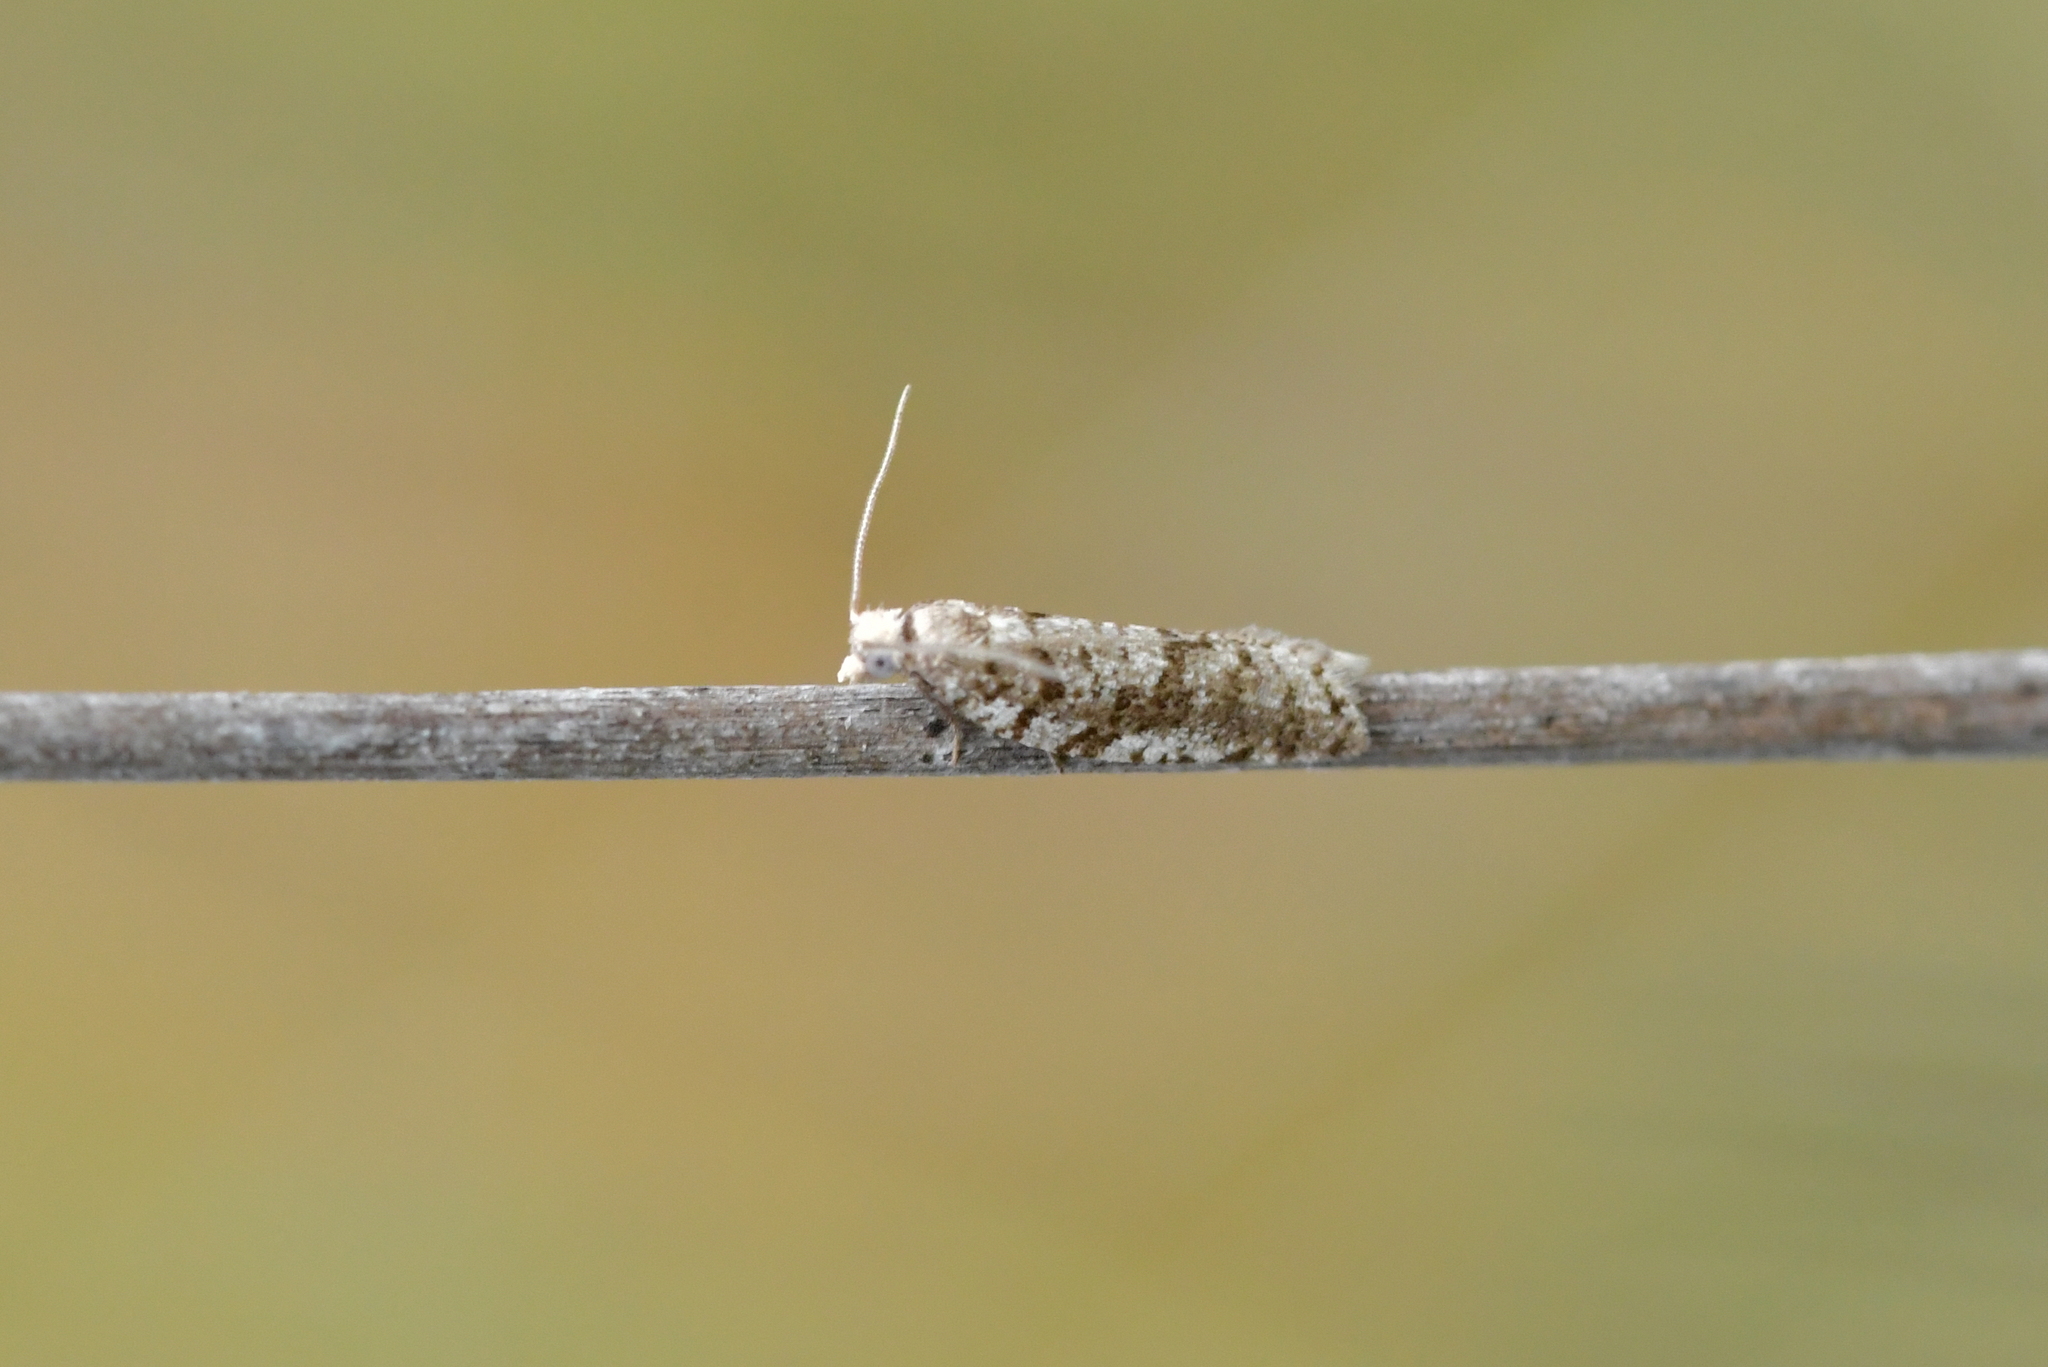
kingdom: Animalia
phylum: Arthropoda
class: Insecta
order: Lepidoptera
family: Tortricidae
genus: Ericodesma
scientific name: Ericodesma scruposa
